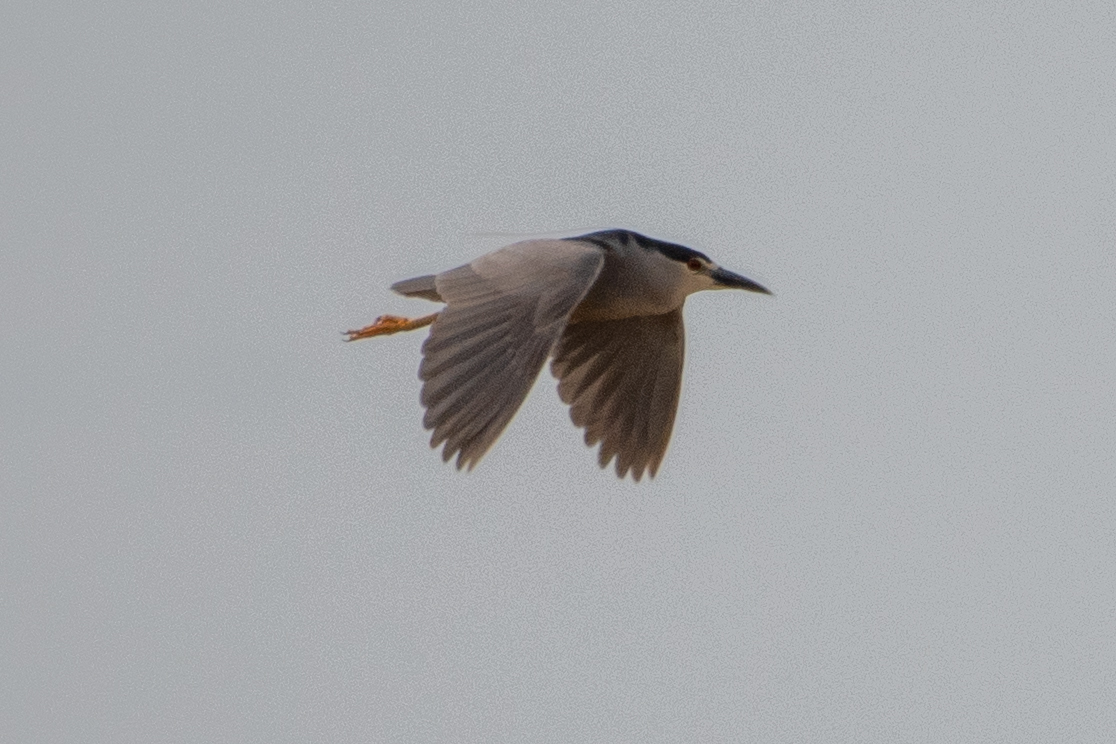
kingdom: Animalia
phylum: Chordata
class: Aves
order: Pelecaniformes
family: Ardeidae
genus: Nycticorax
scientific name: Nycticorax nycticorax
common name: Black-crowned night heron
